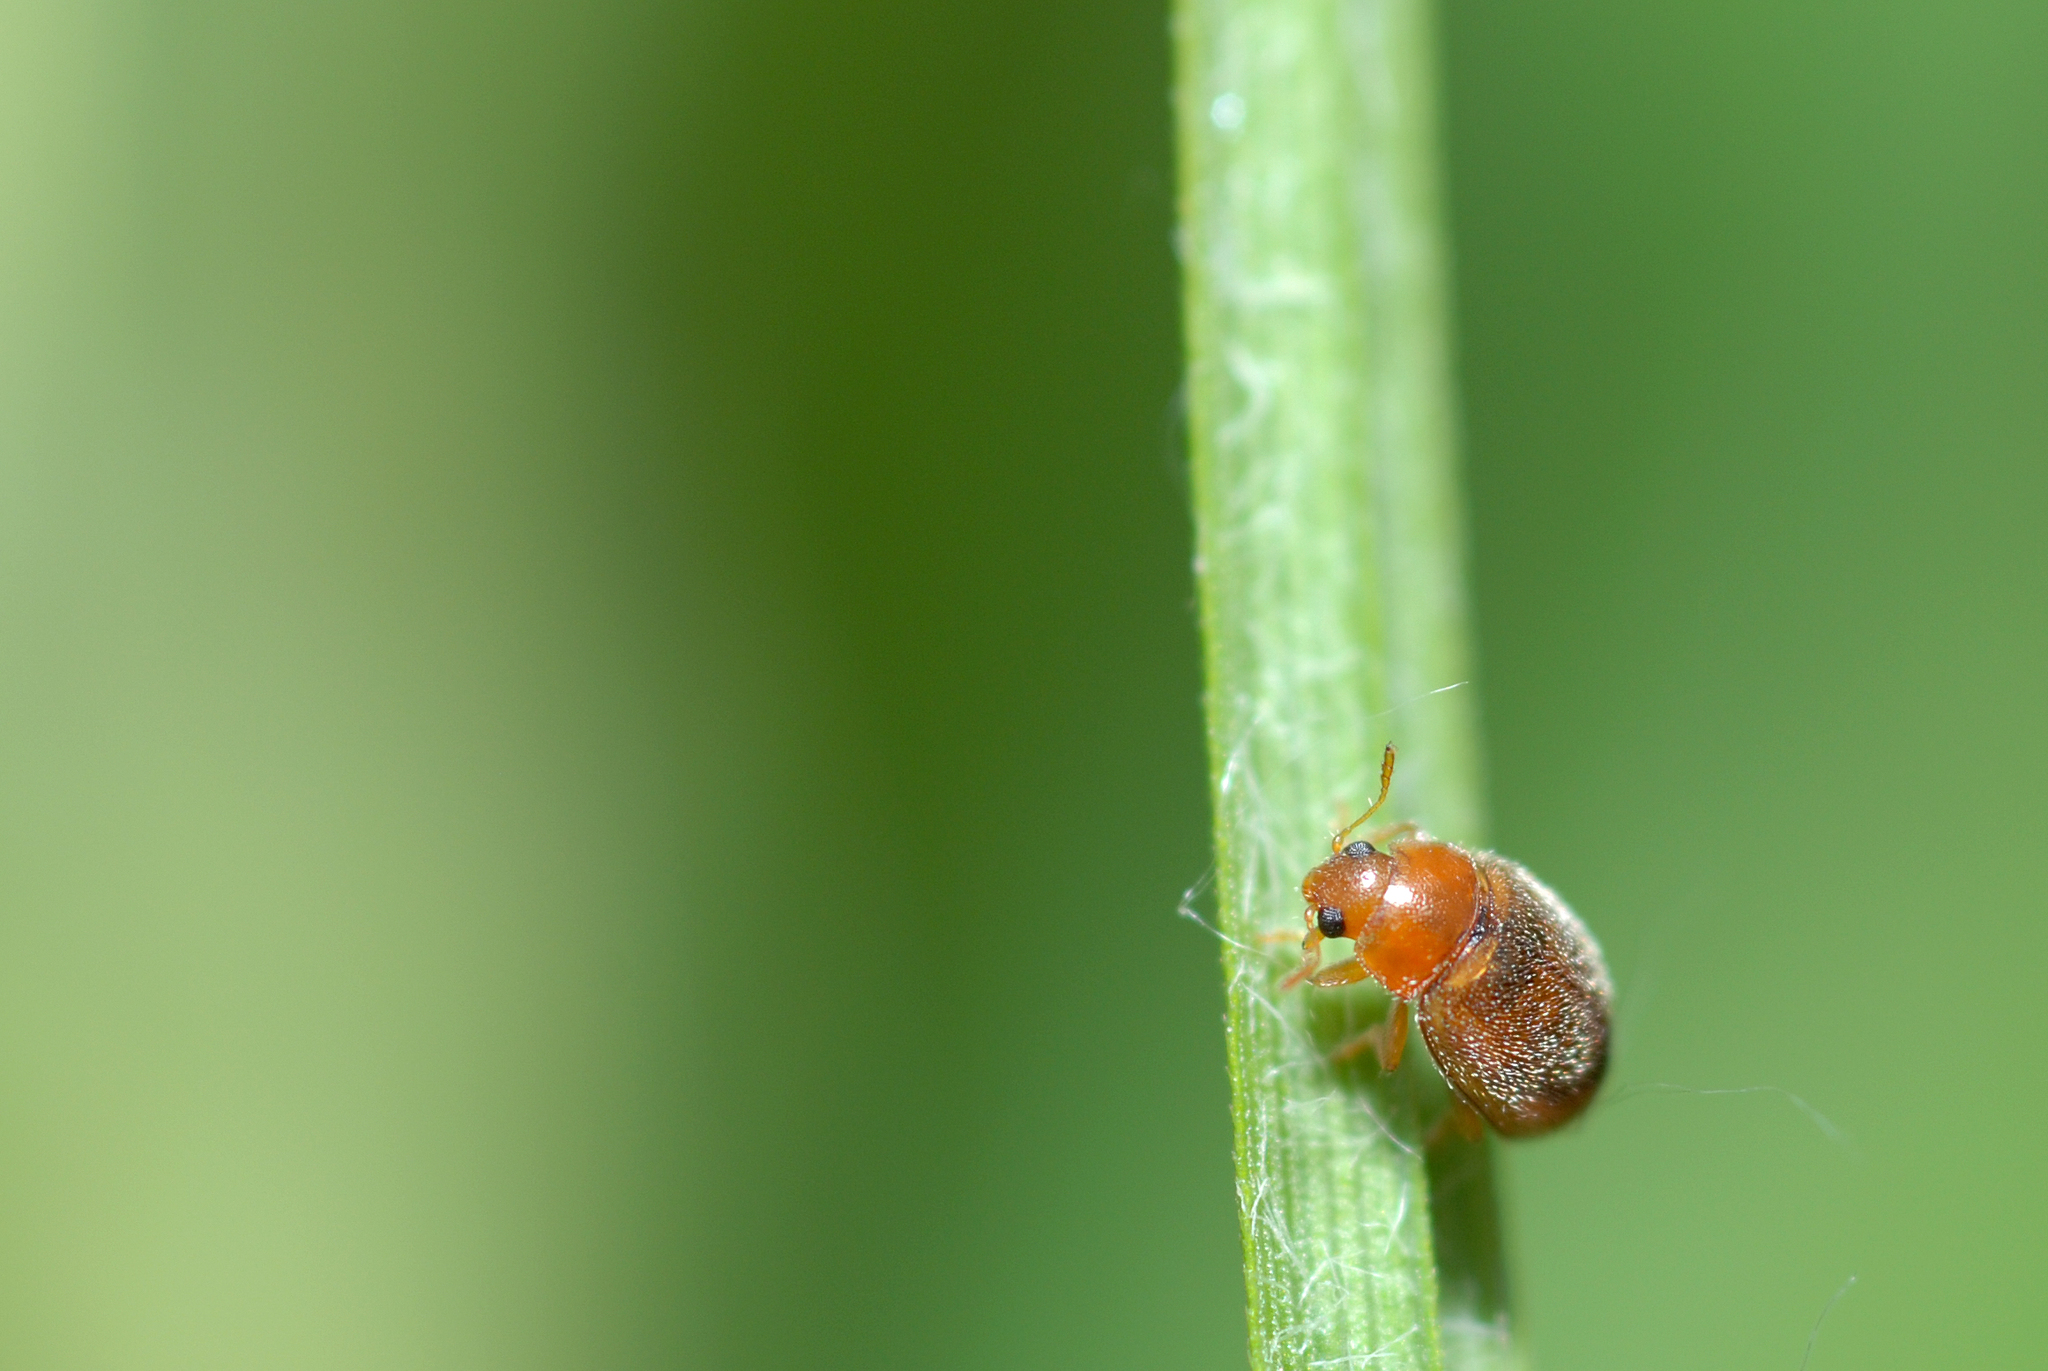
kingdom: Animalia
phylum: Arthropoda
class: Insecta
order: Coleoptera
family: Coccinellidae
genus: Rhyzobius
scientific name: Rhyzobius litura
